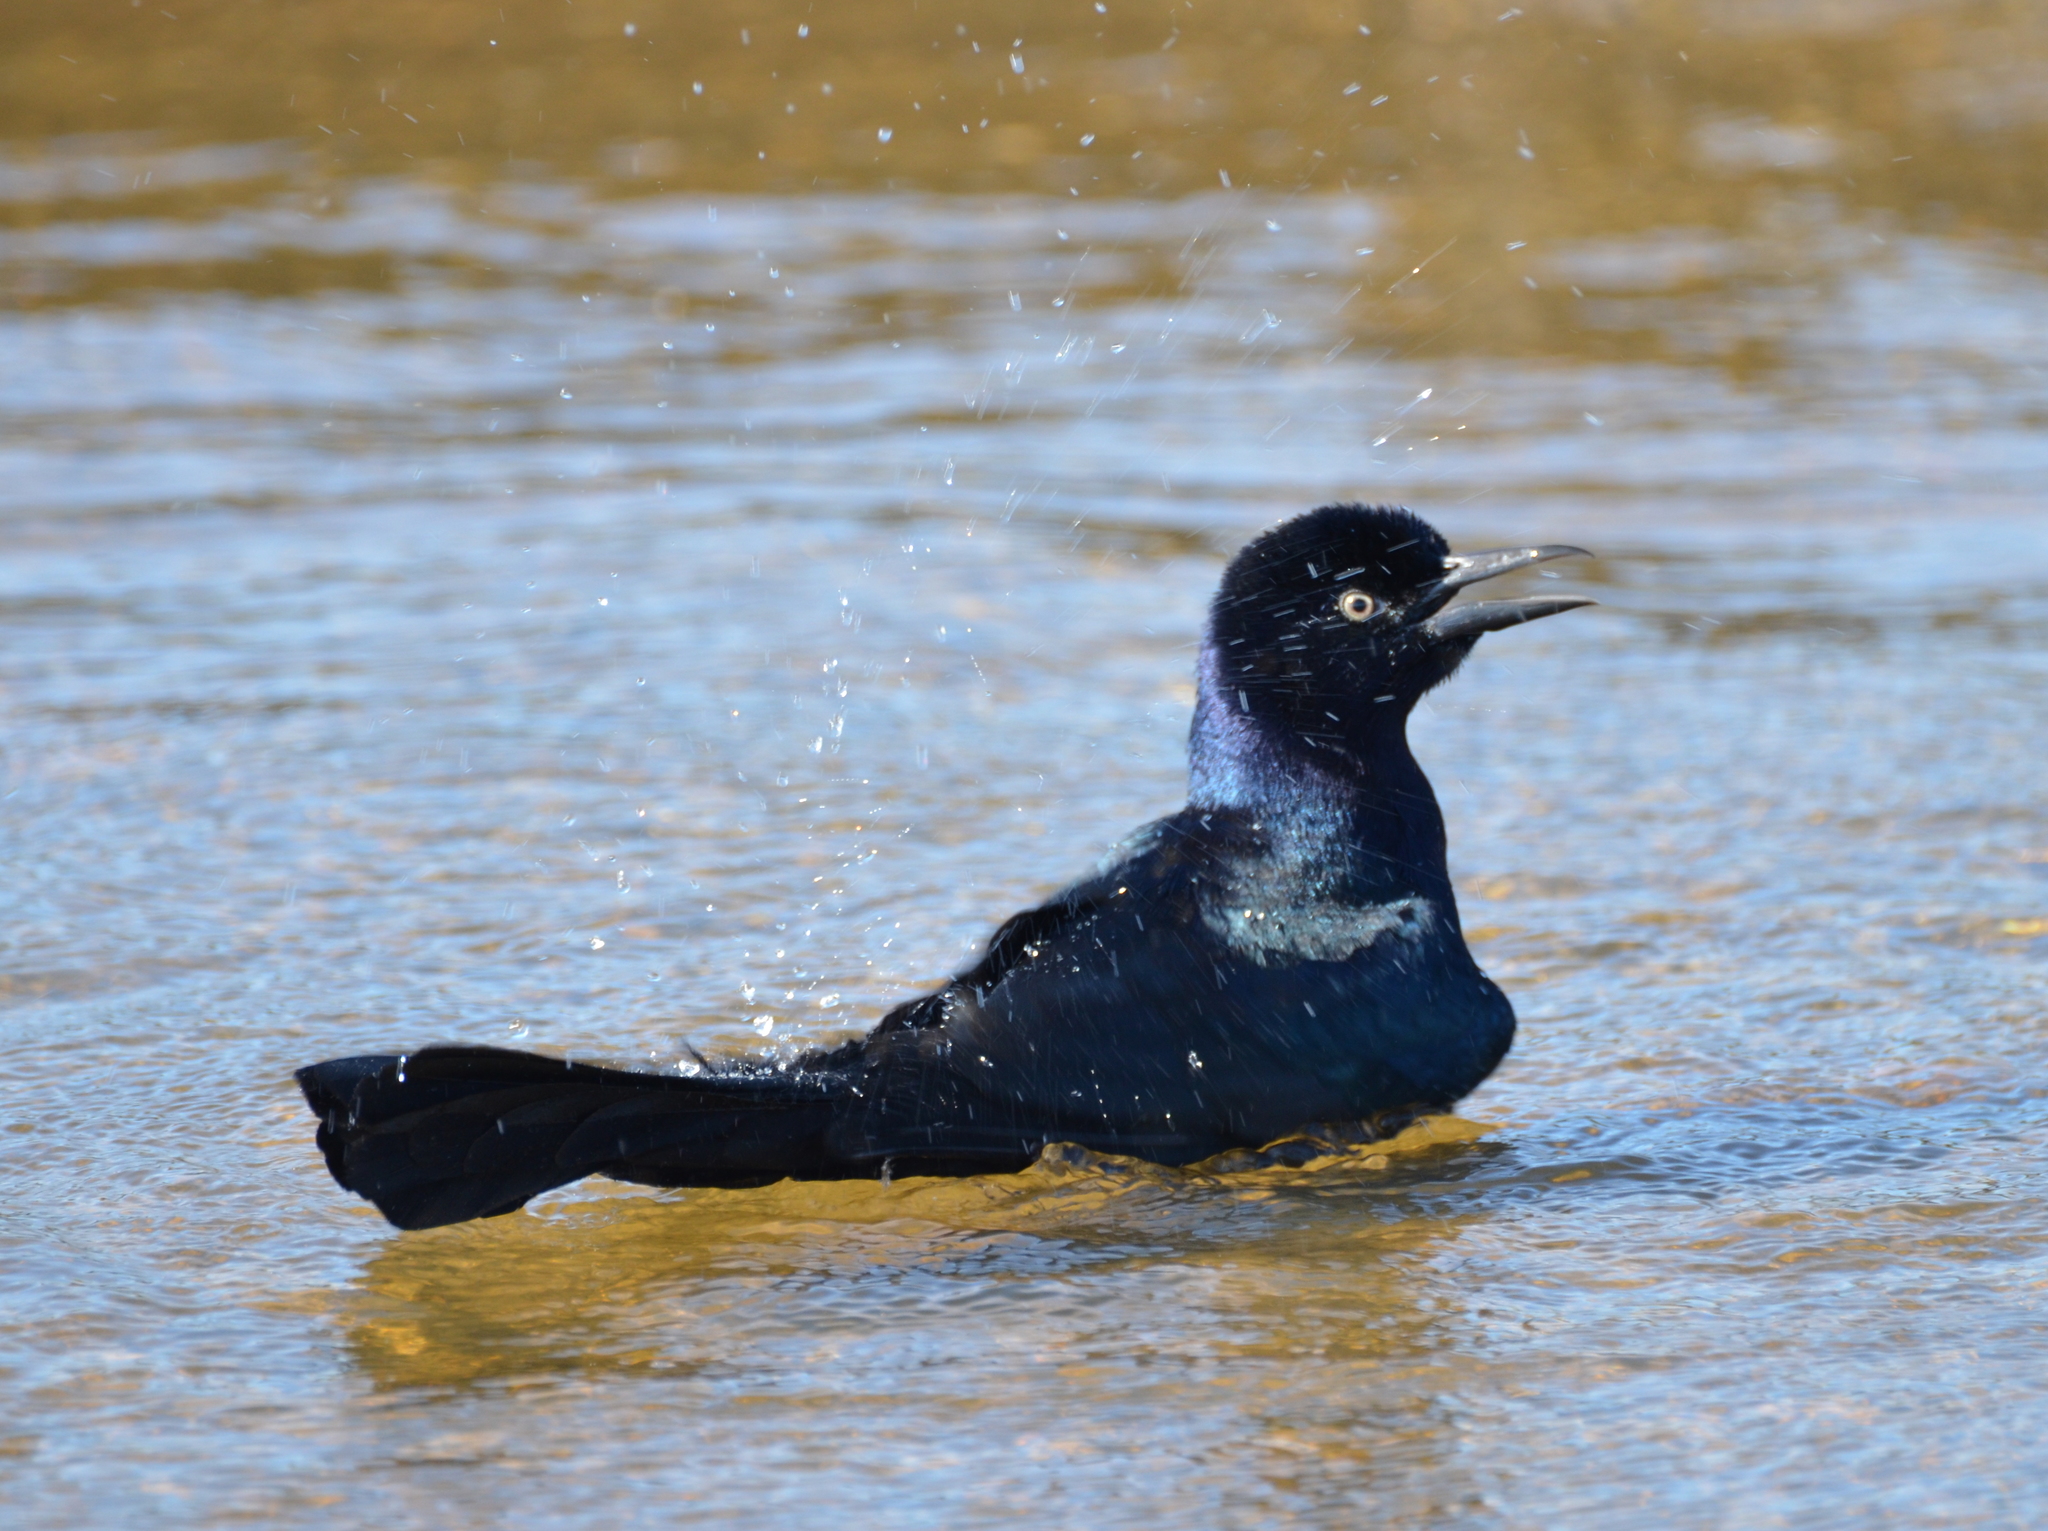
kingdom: Animalia
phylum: Chordata
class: Aves
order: Passeriformes
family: Icteridae
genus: Quiscalus
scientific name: Quiscalus major
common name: Boat-tailed grackle
